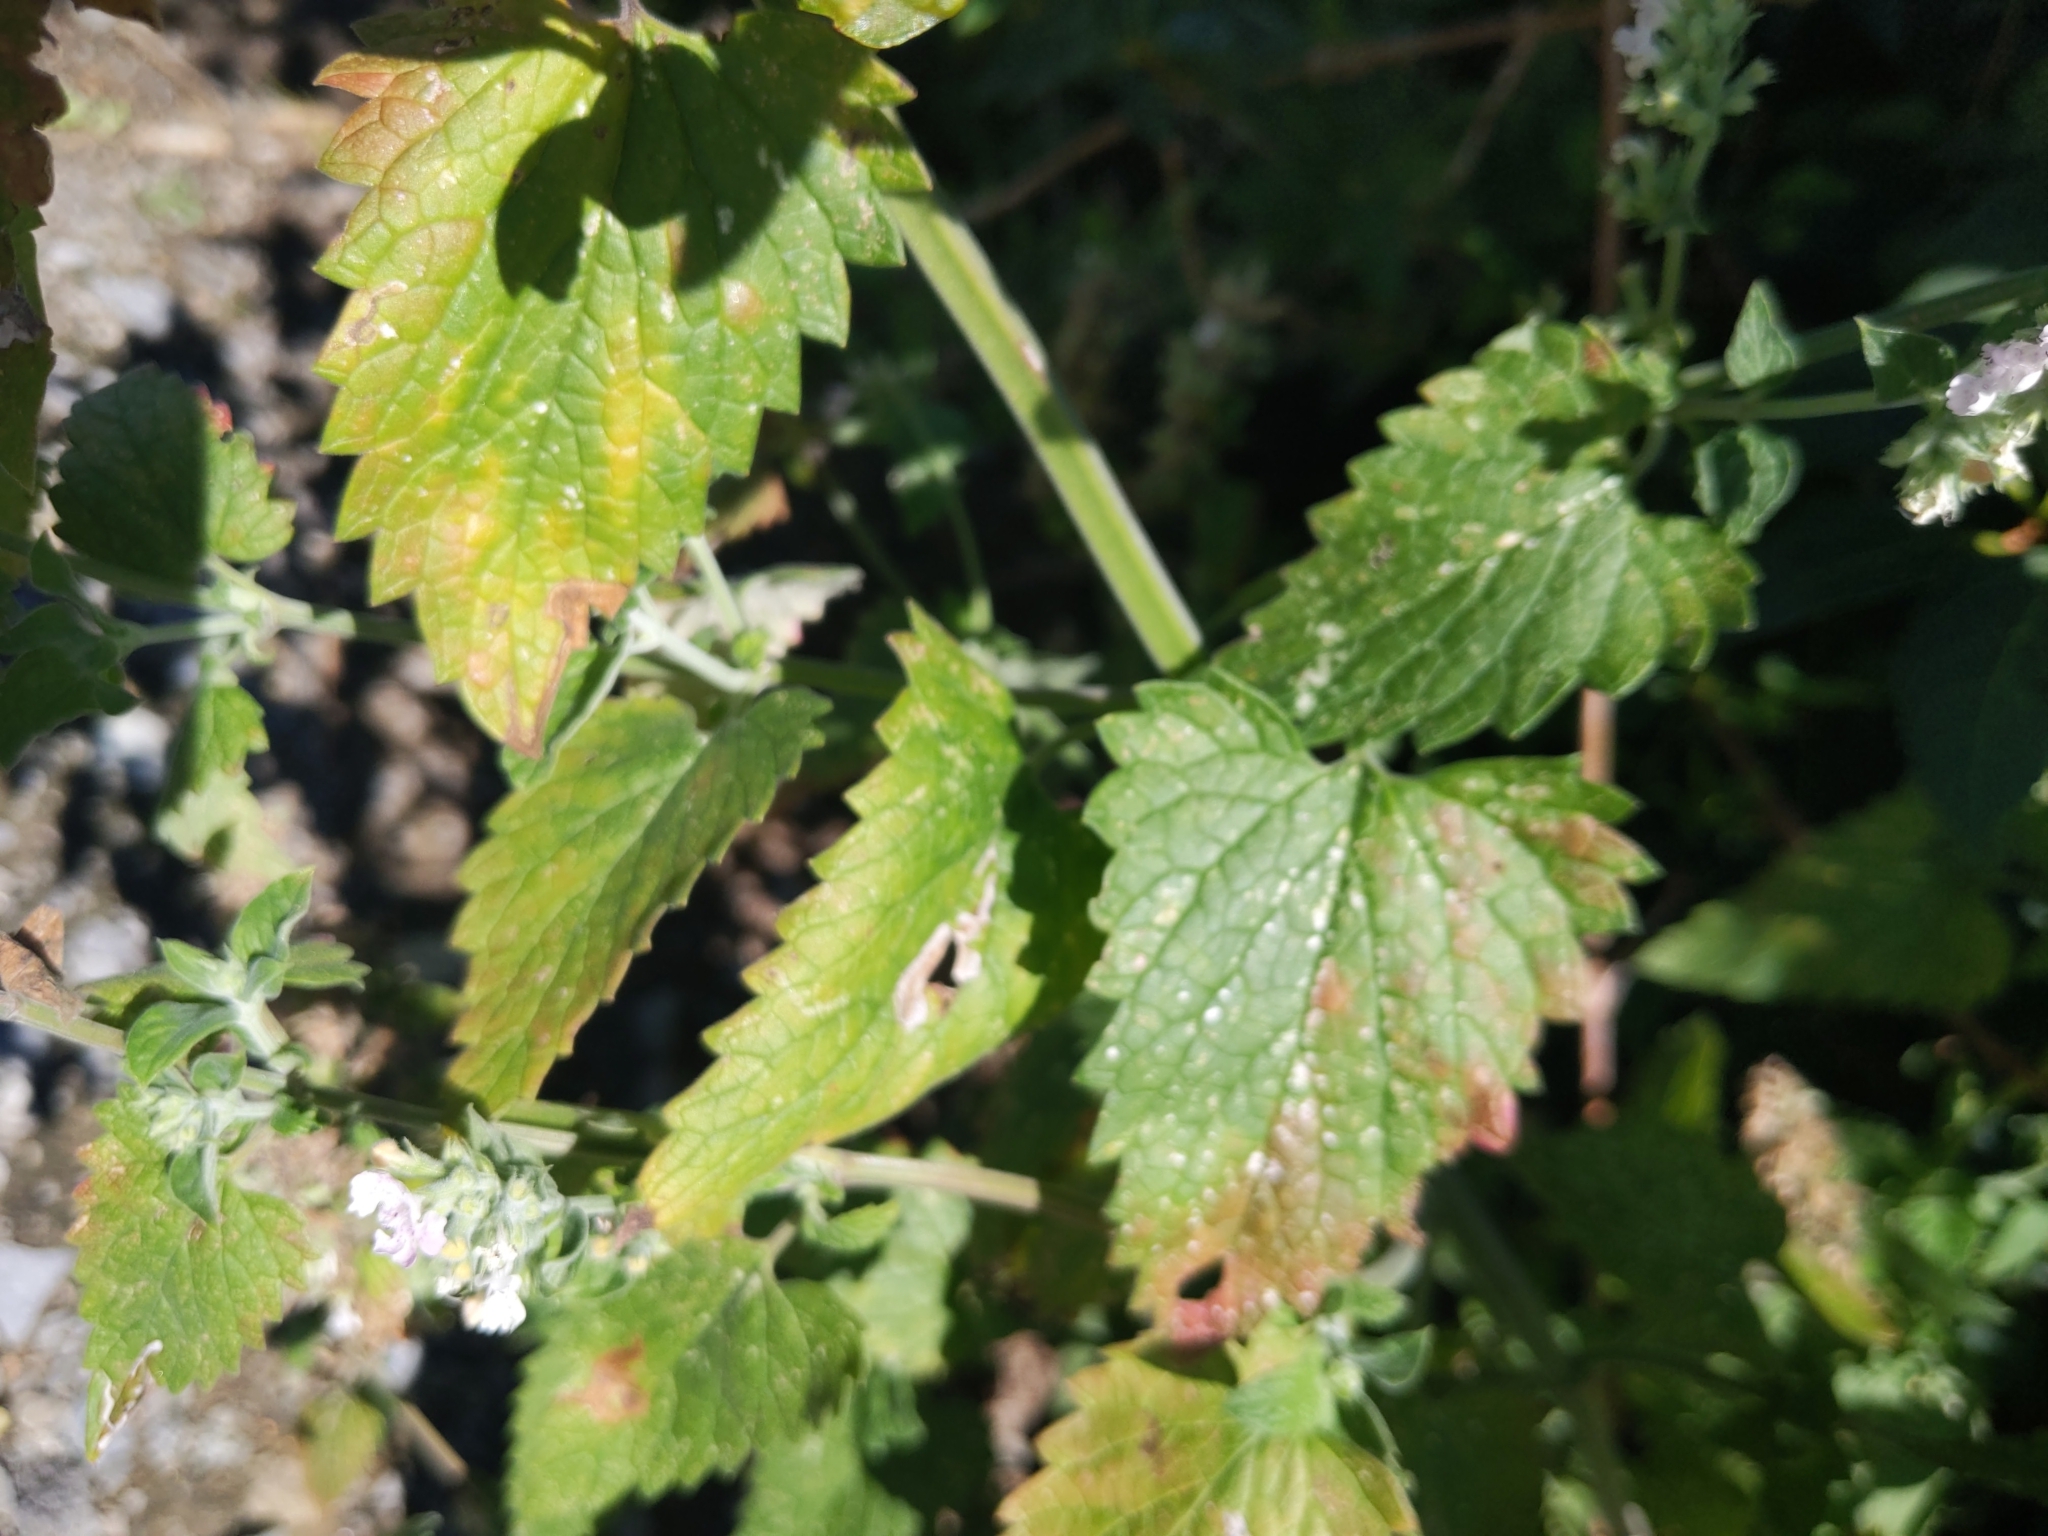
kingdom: Plantae
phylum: Tracheophyta
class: Magnoliopsida
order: Lamiales
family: Lamiaceae
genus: Nepeta
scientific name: Nepeta cataria
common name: Catnip
